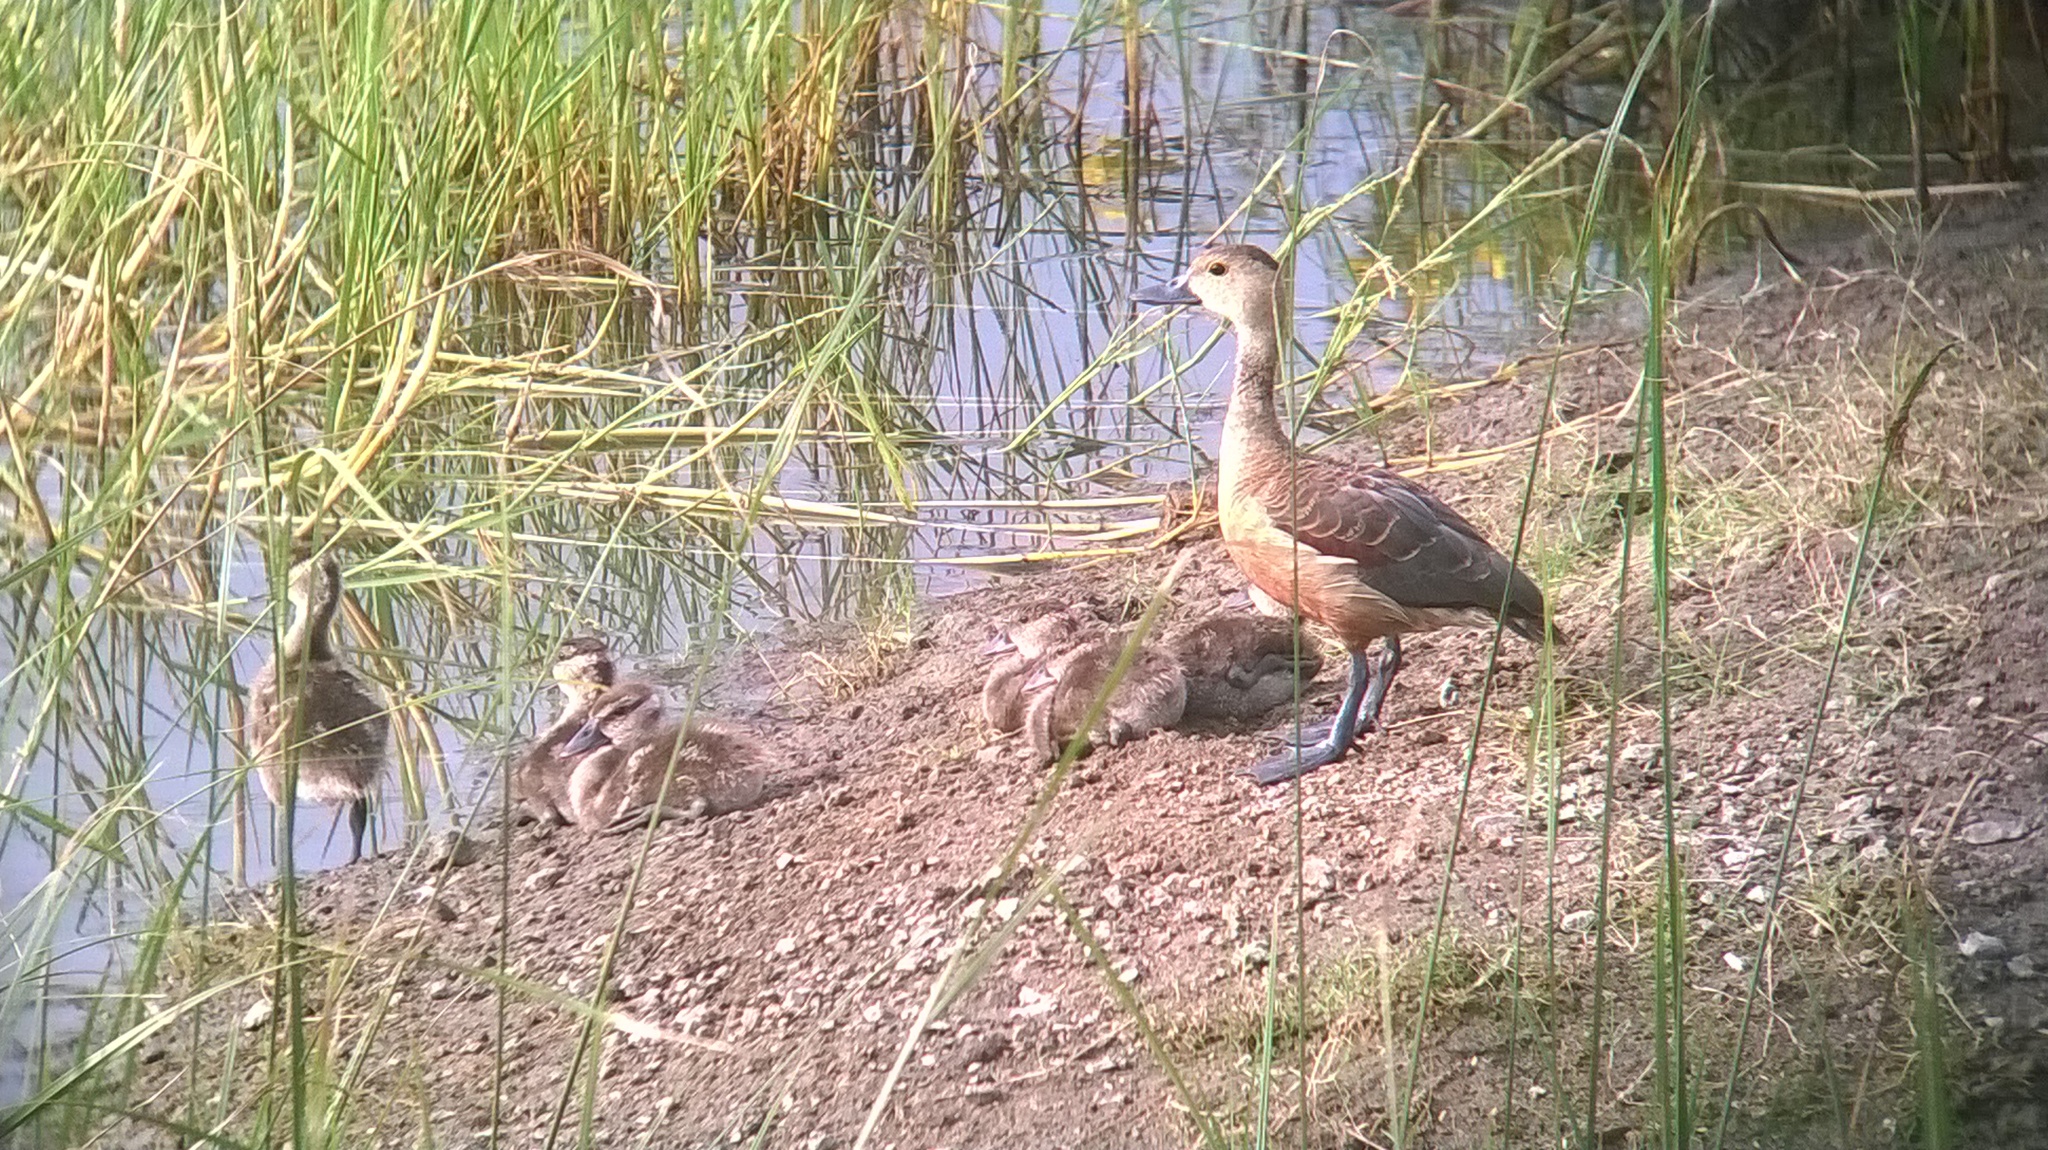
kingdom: Animalia
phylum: Chordata
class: Aves
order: Anseriformes
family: Anatidae
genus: Dendrocygna
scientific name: Dendrocygna javanica
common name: Lesser whistling-duck
